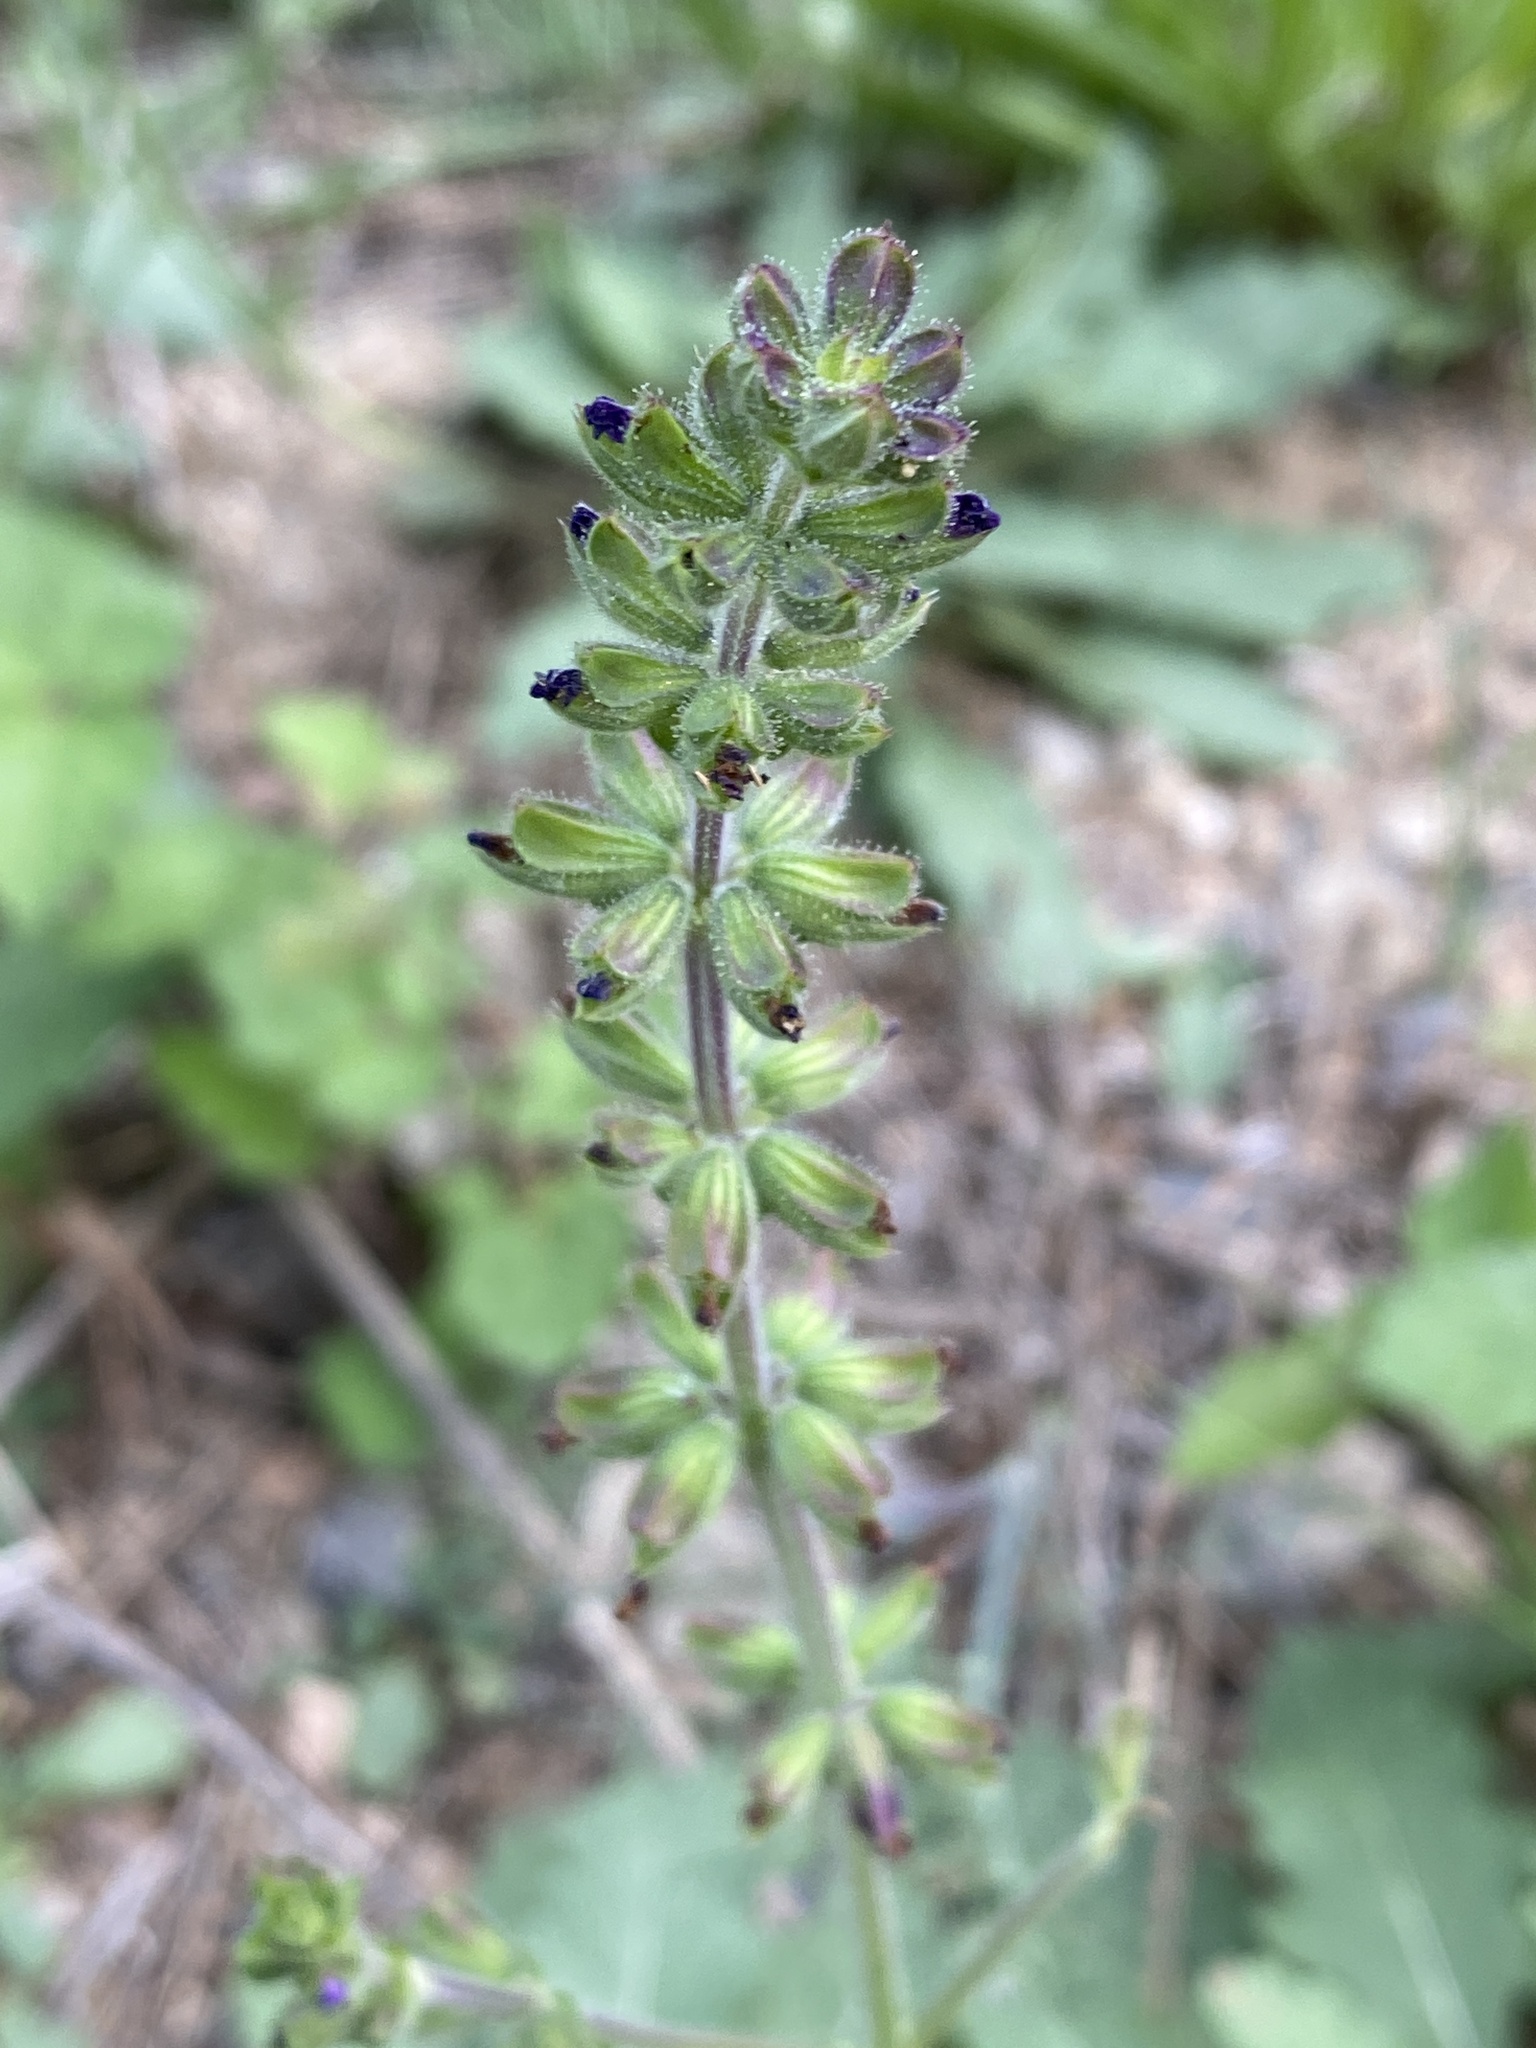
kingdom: Plantae
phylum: Tracheophyta
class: Magnoliopsida
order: Lamiales
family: Lamiaceae
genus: Salvia
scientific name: Salvia verbenaca
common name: Wild clary
